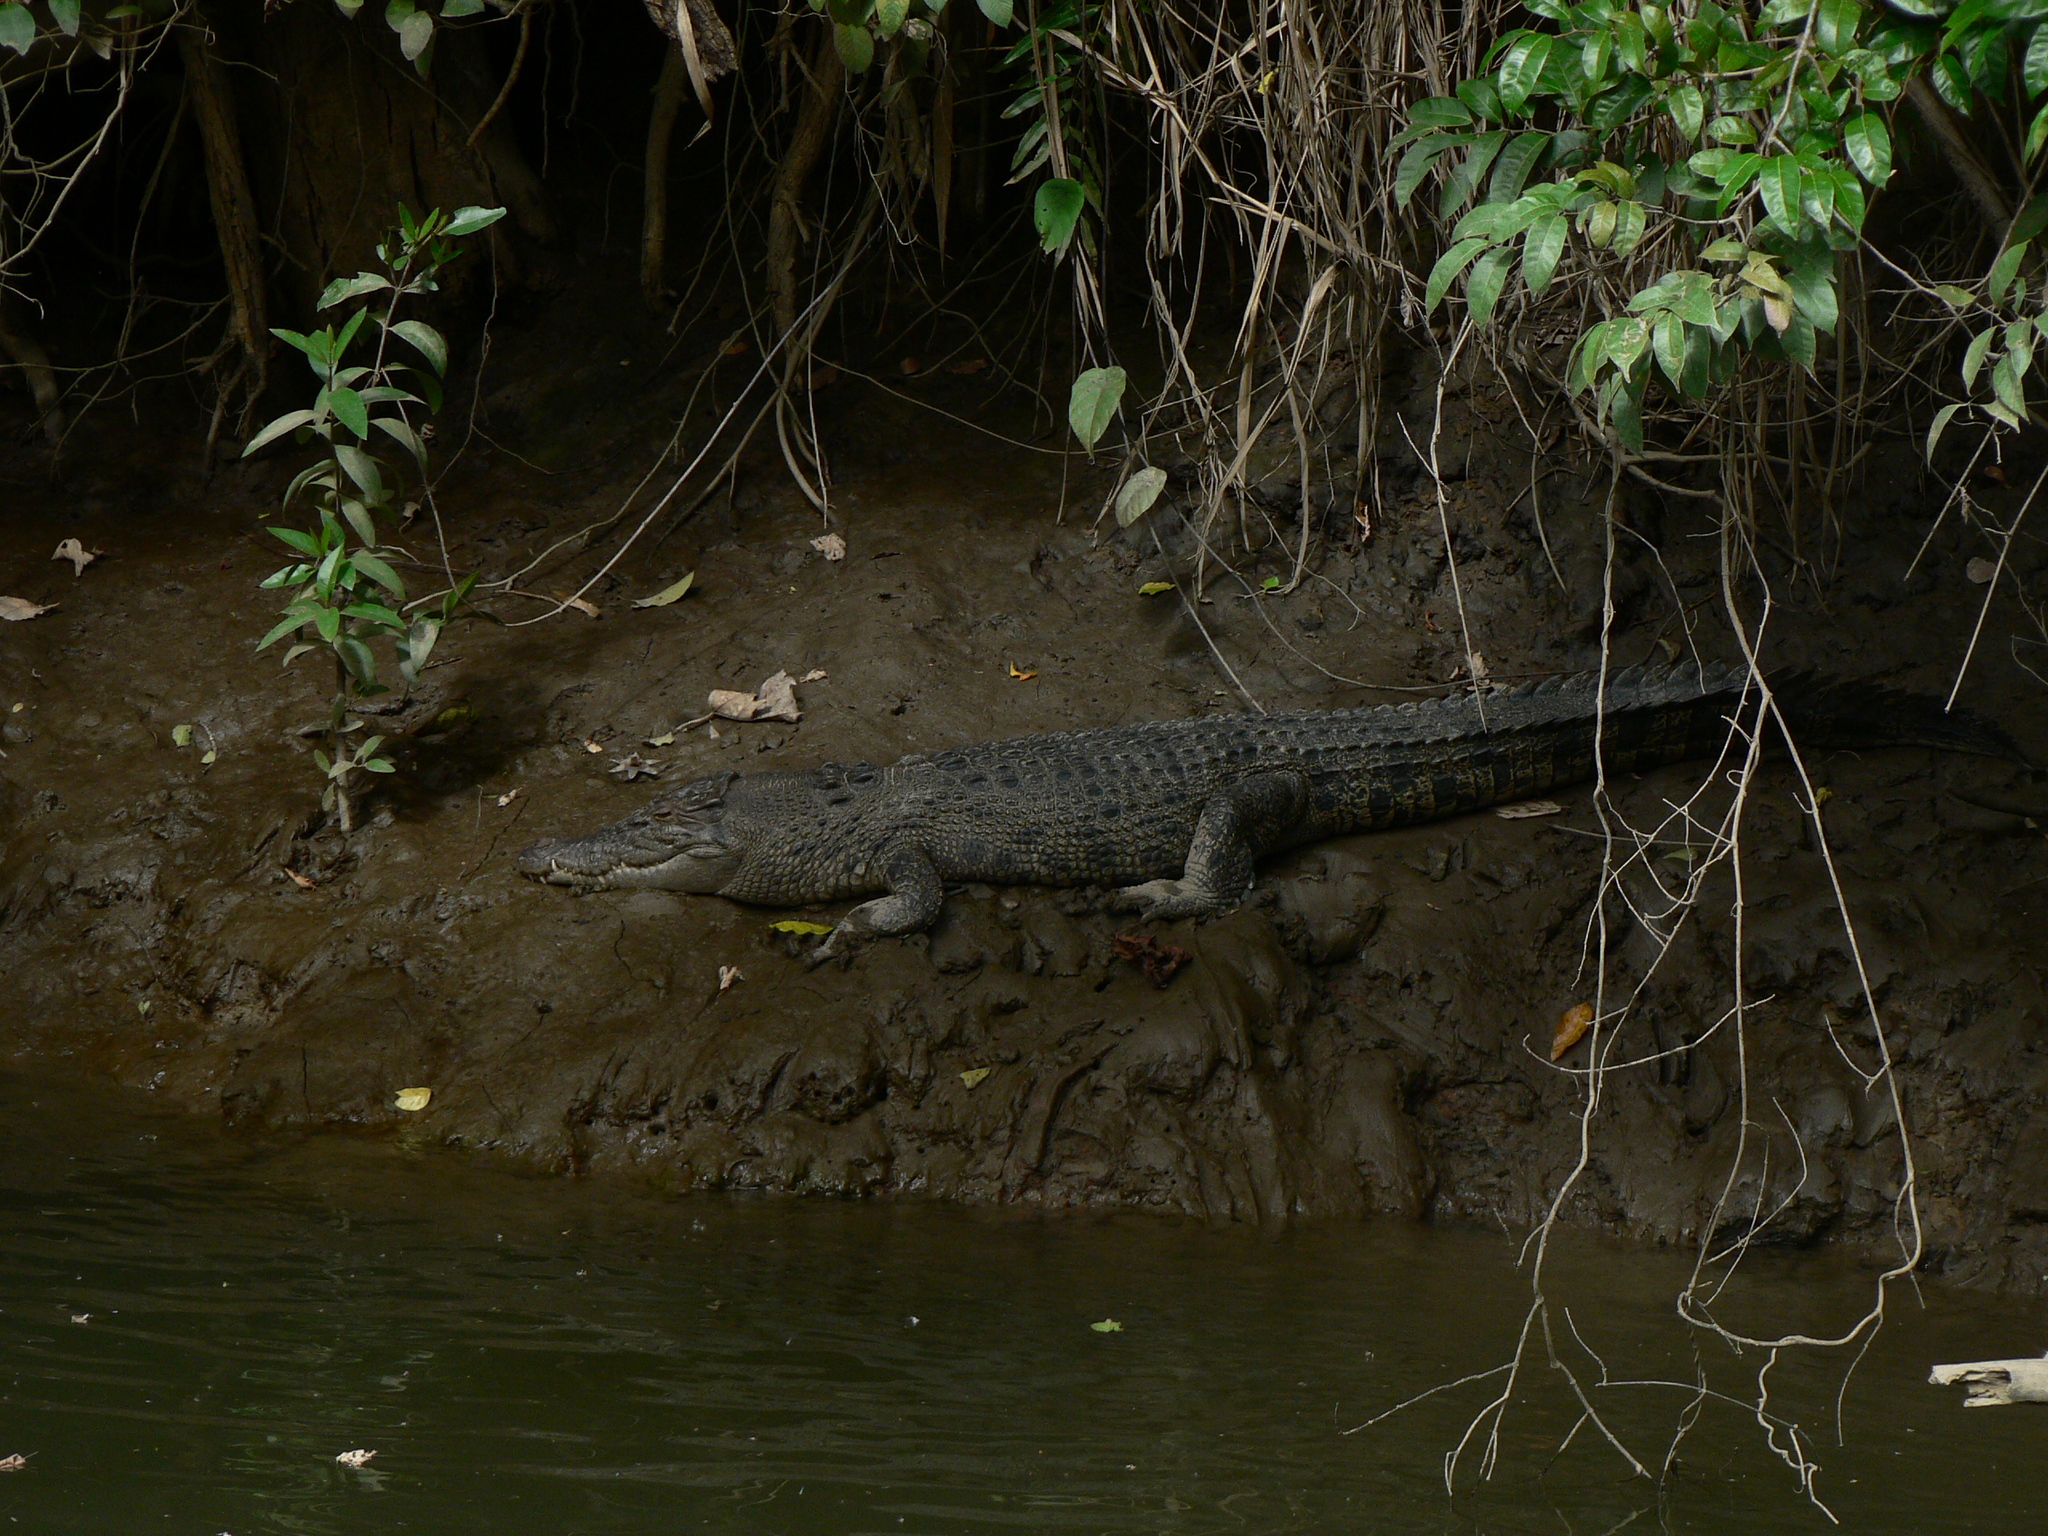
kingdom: Animalia
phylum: Chordata
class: Crocodylia
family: Crocodylidae
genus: Crocodylus
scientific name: Crocodylus porosus
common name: Saltwater crocodile
